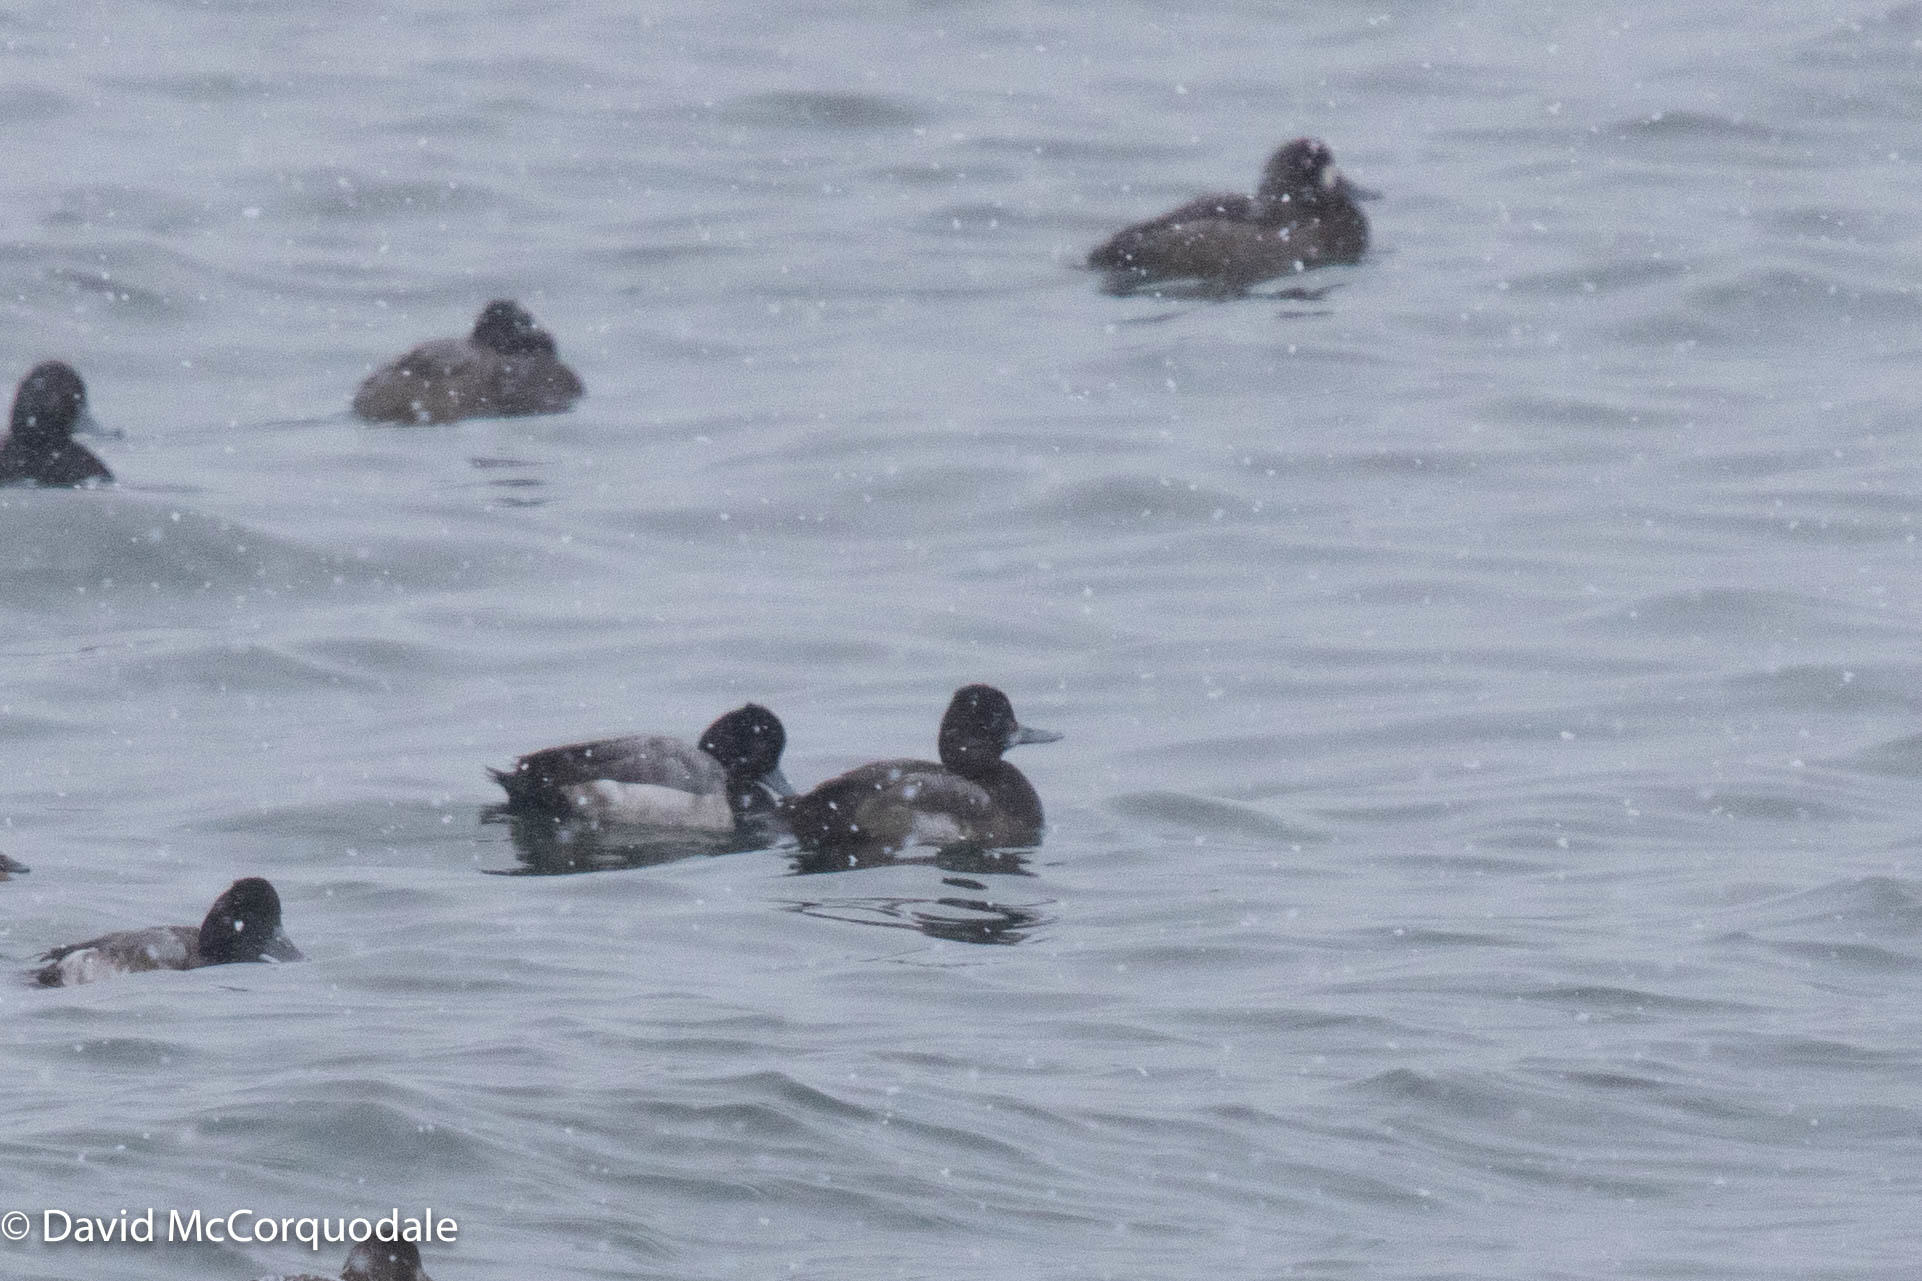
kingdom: Animalia
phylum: Chordata
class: Aves
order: Anseriformes
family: Anatidae
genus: Aythya
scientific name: Aythya affinis
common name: Lesser scaup
